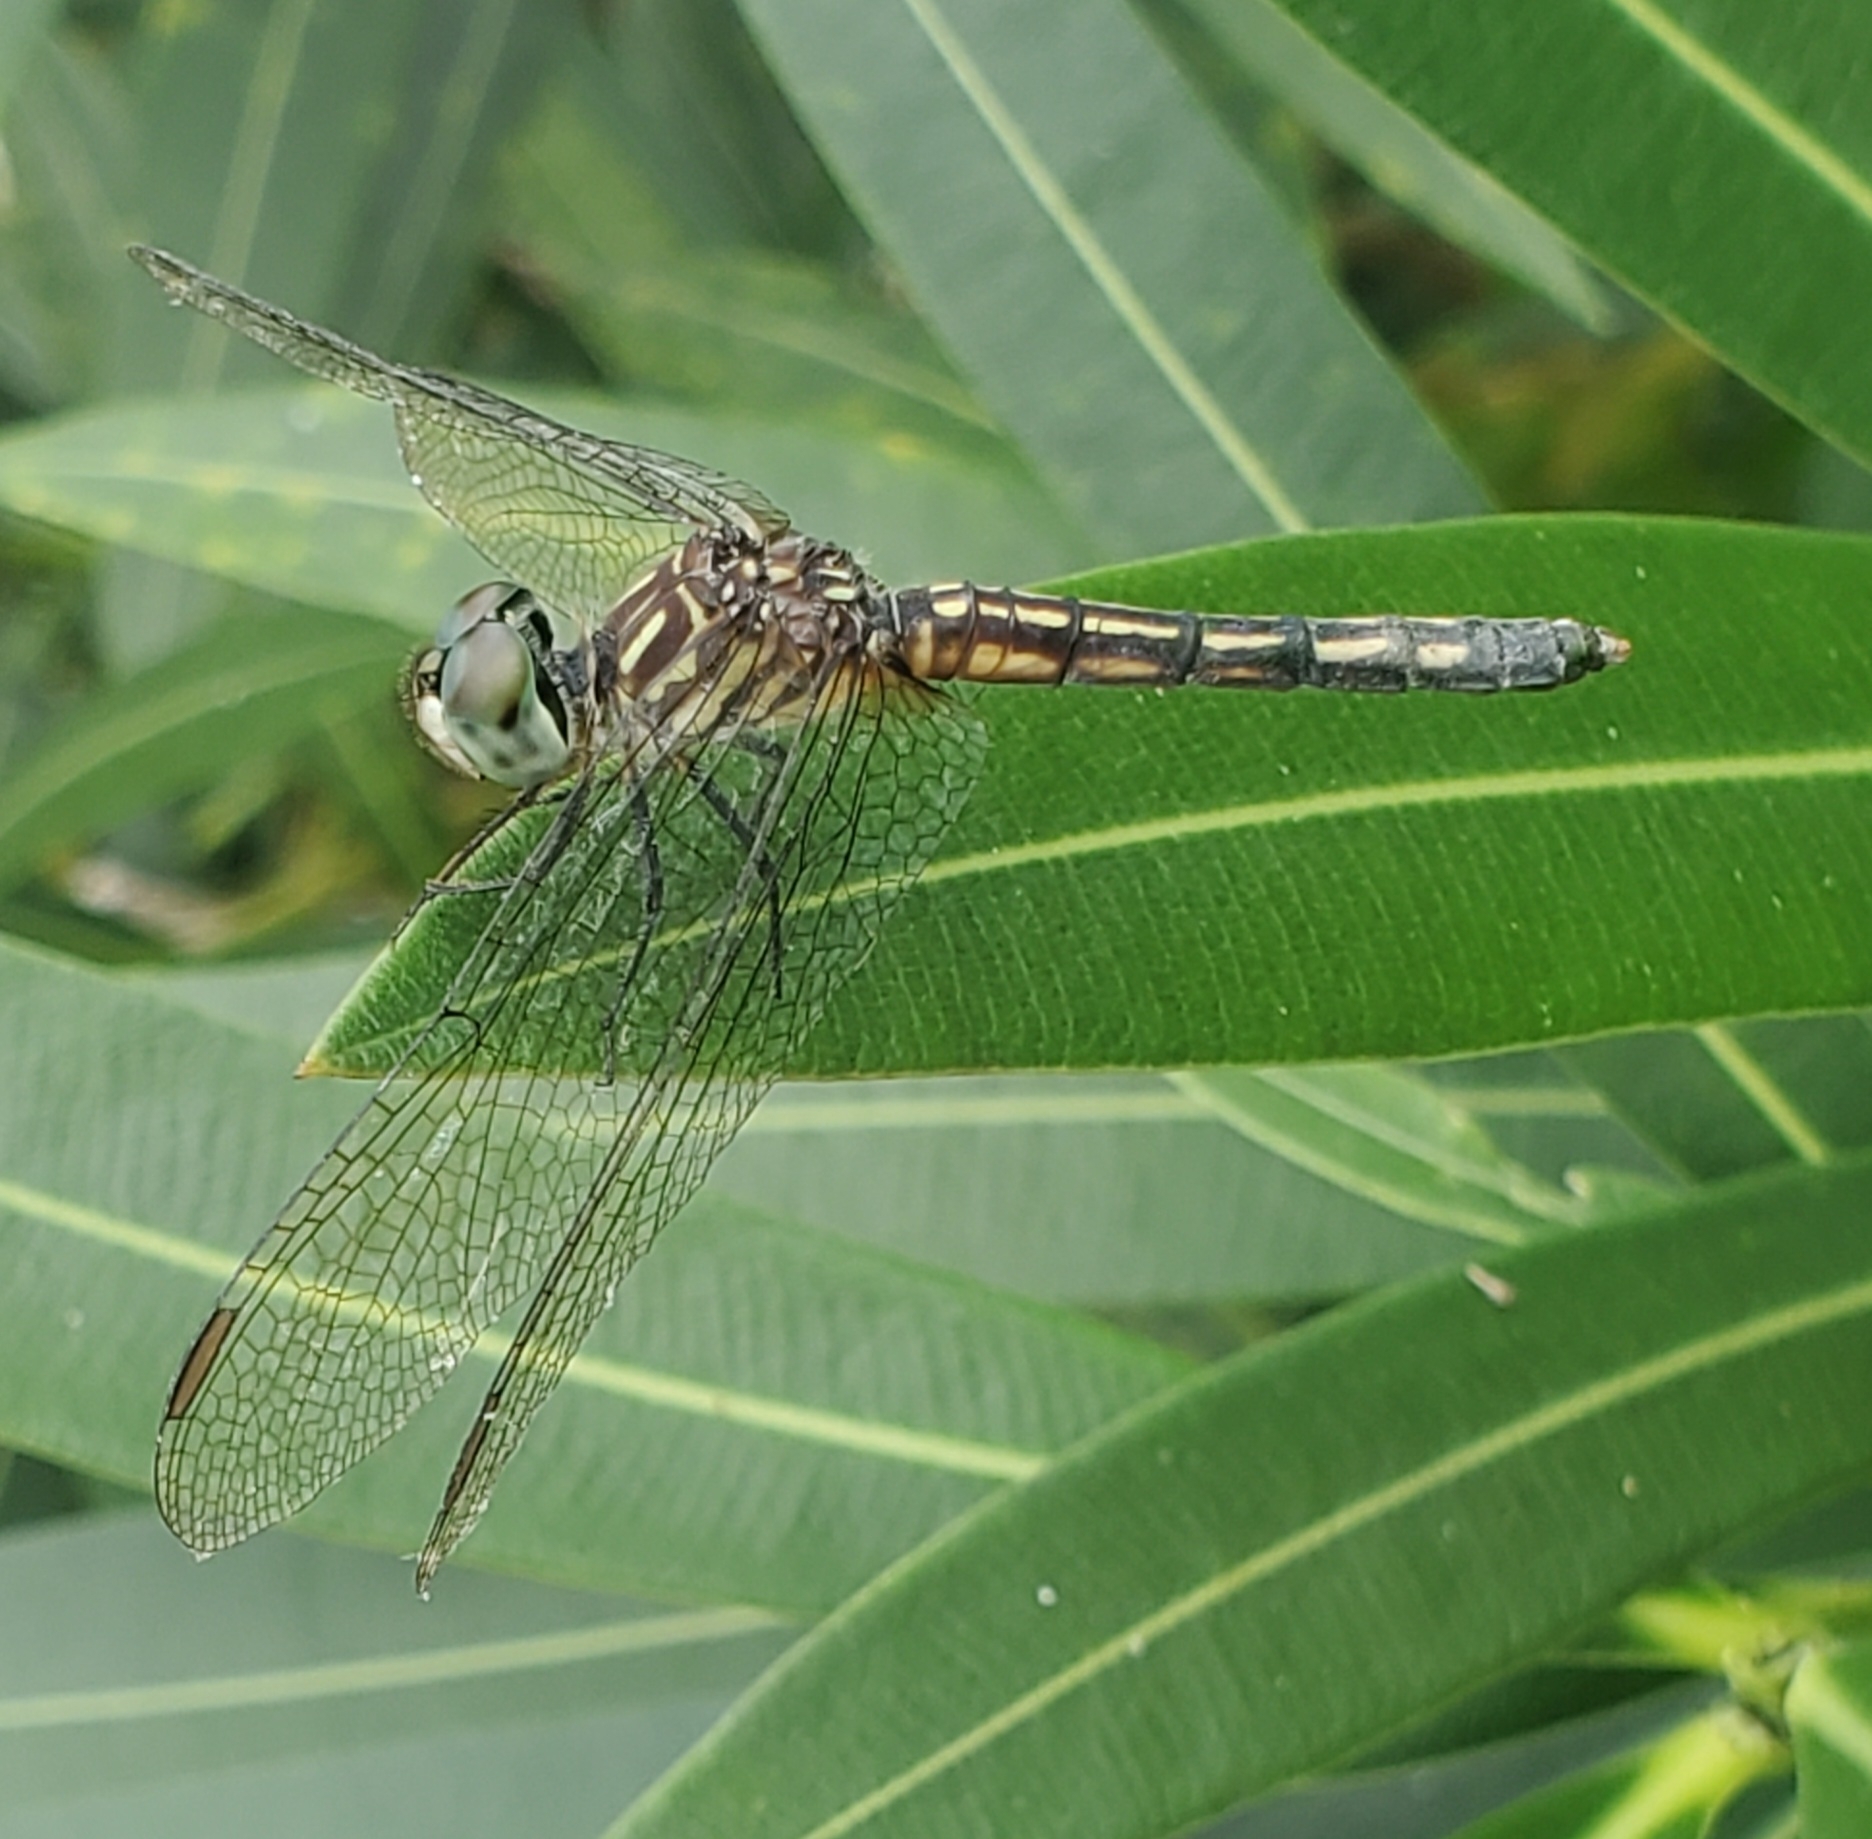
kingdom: Animalia
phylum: Arthropoda
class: Insecta
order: Odonata
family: Libellulidae
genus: Pachydiplax
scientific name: Pachydiplax longipennis
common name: Blue dasher
